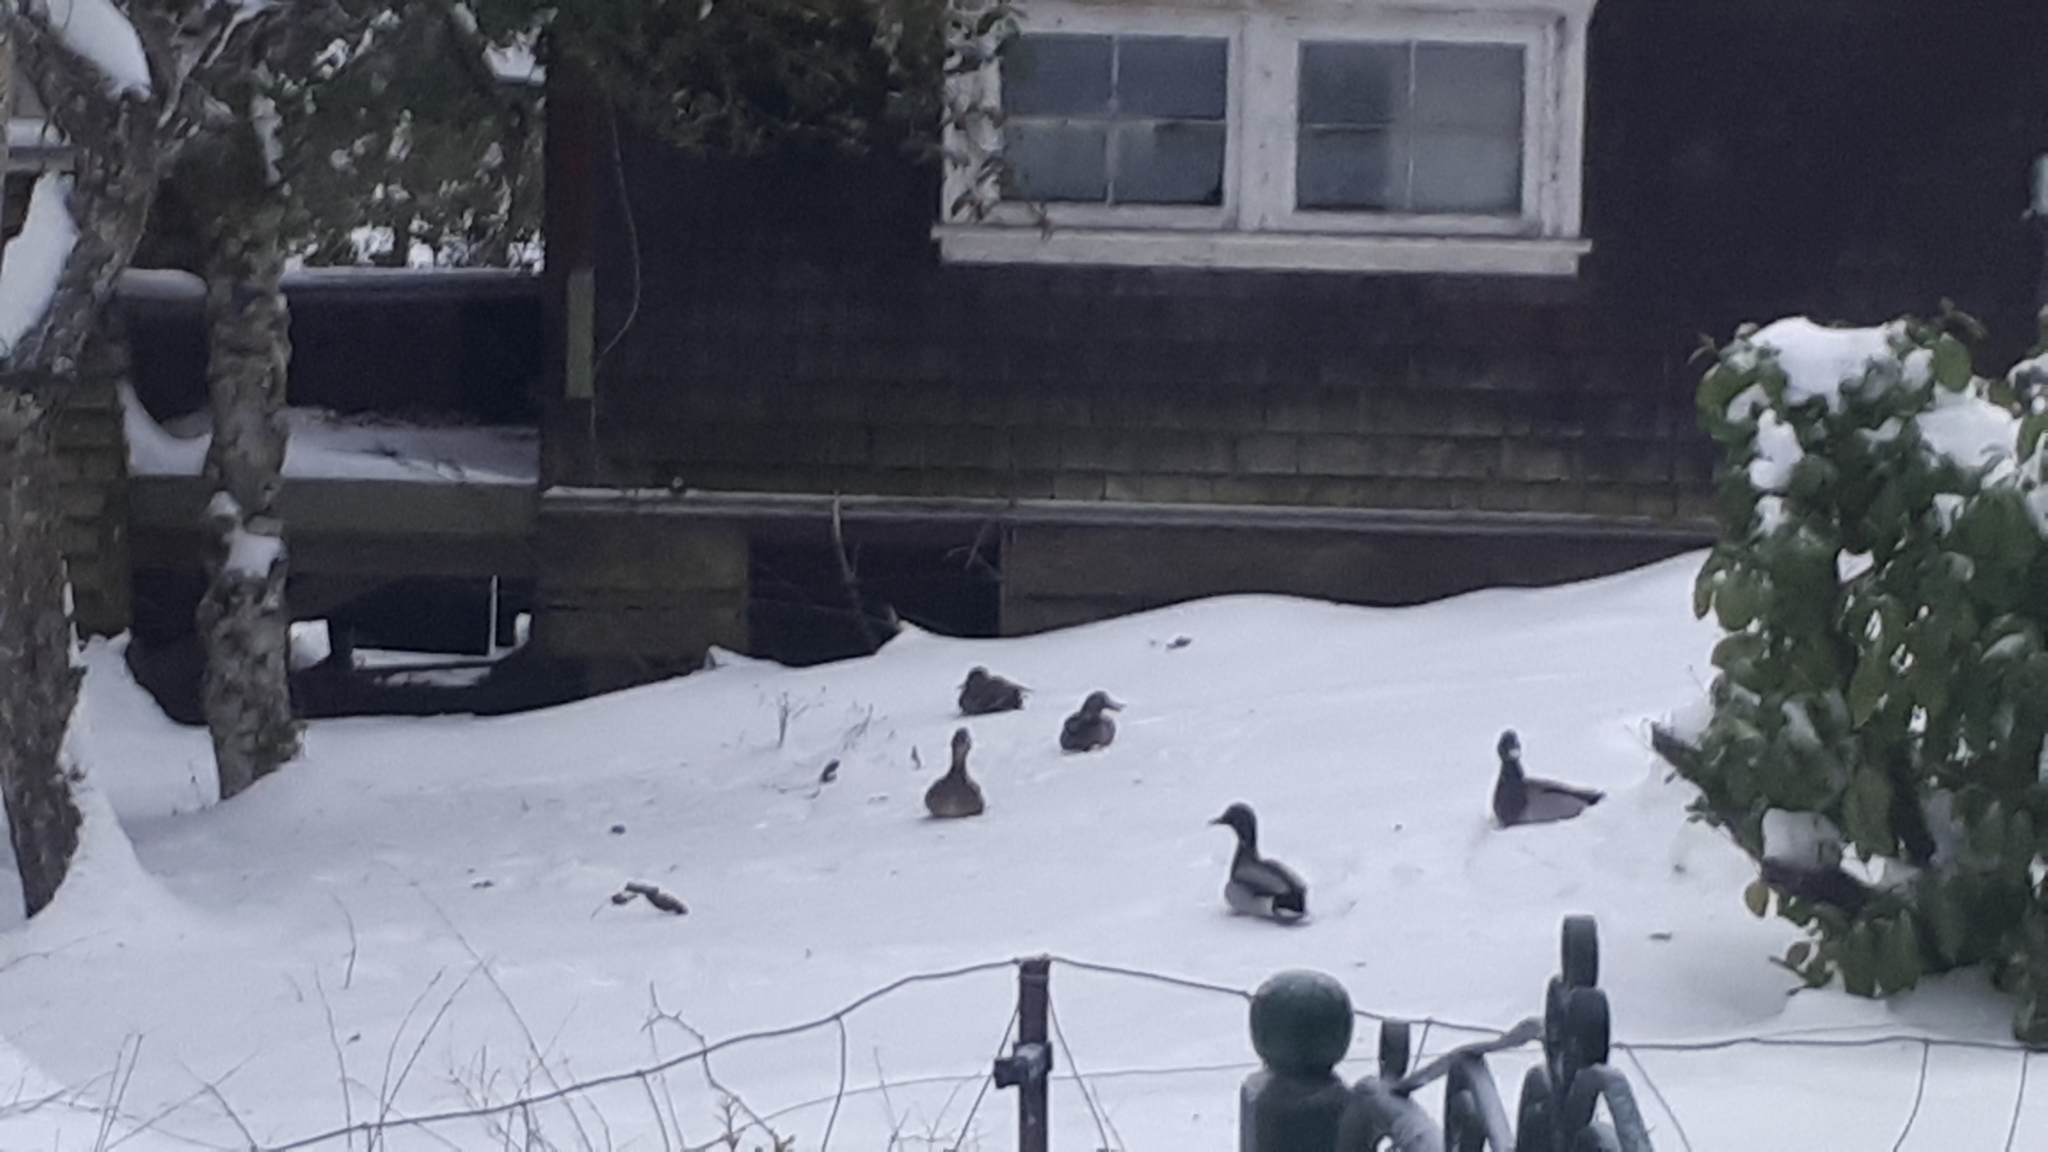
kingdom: Animalia
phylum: Chordata
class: Aves
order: Anseriformes
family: Anatidae
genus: Anas
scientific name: Anas platyrhynchos
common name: Mallard
